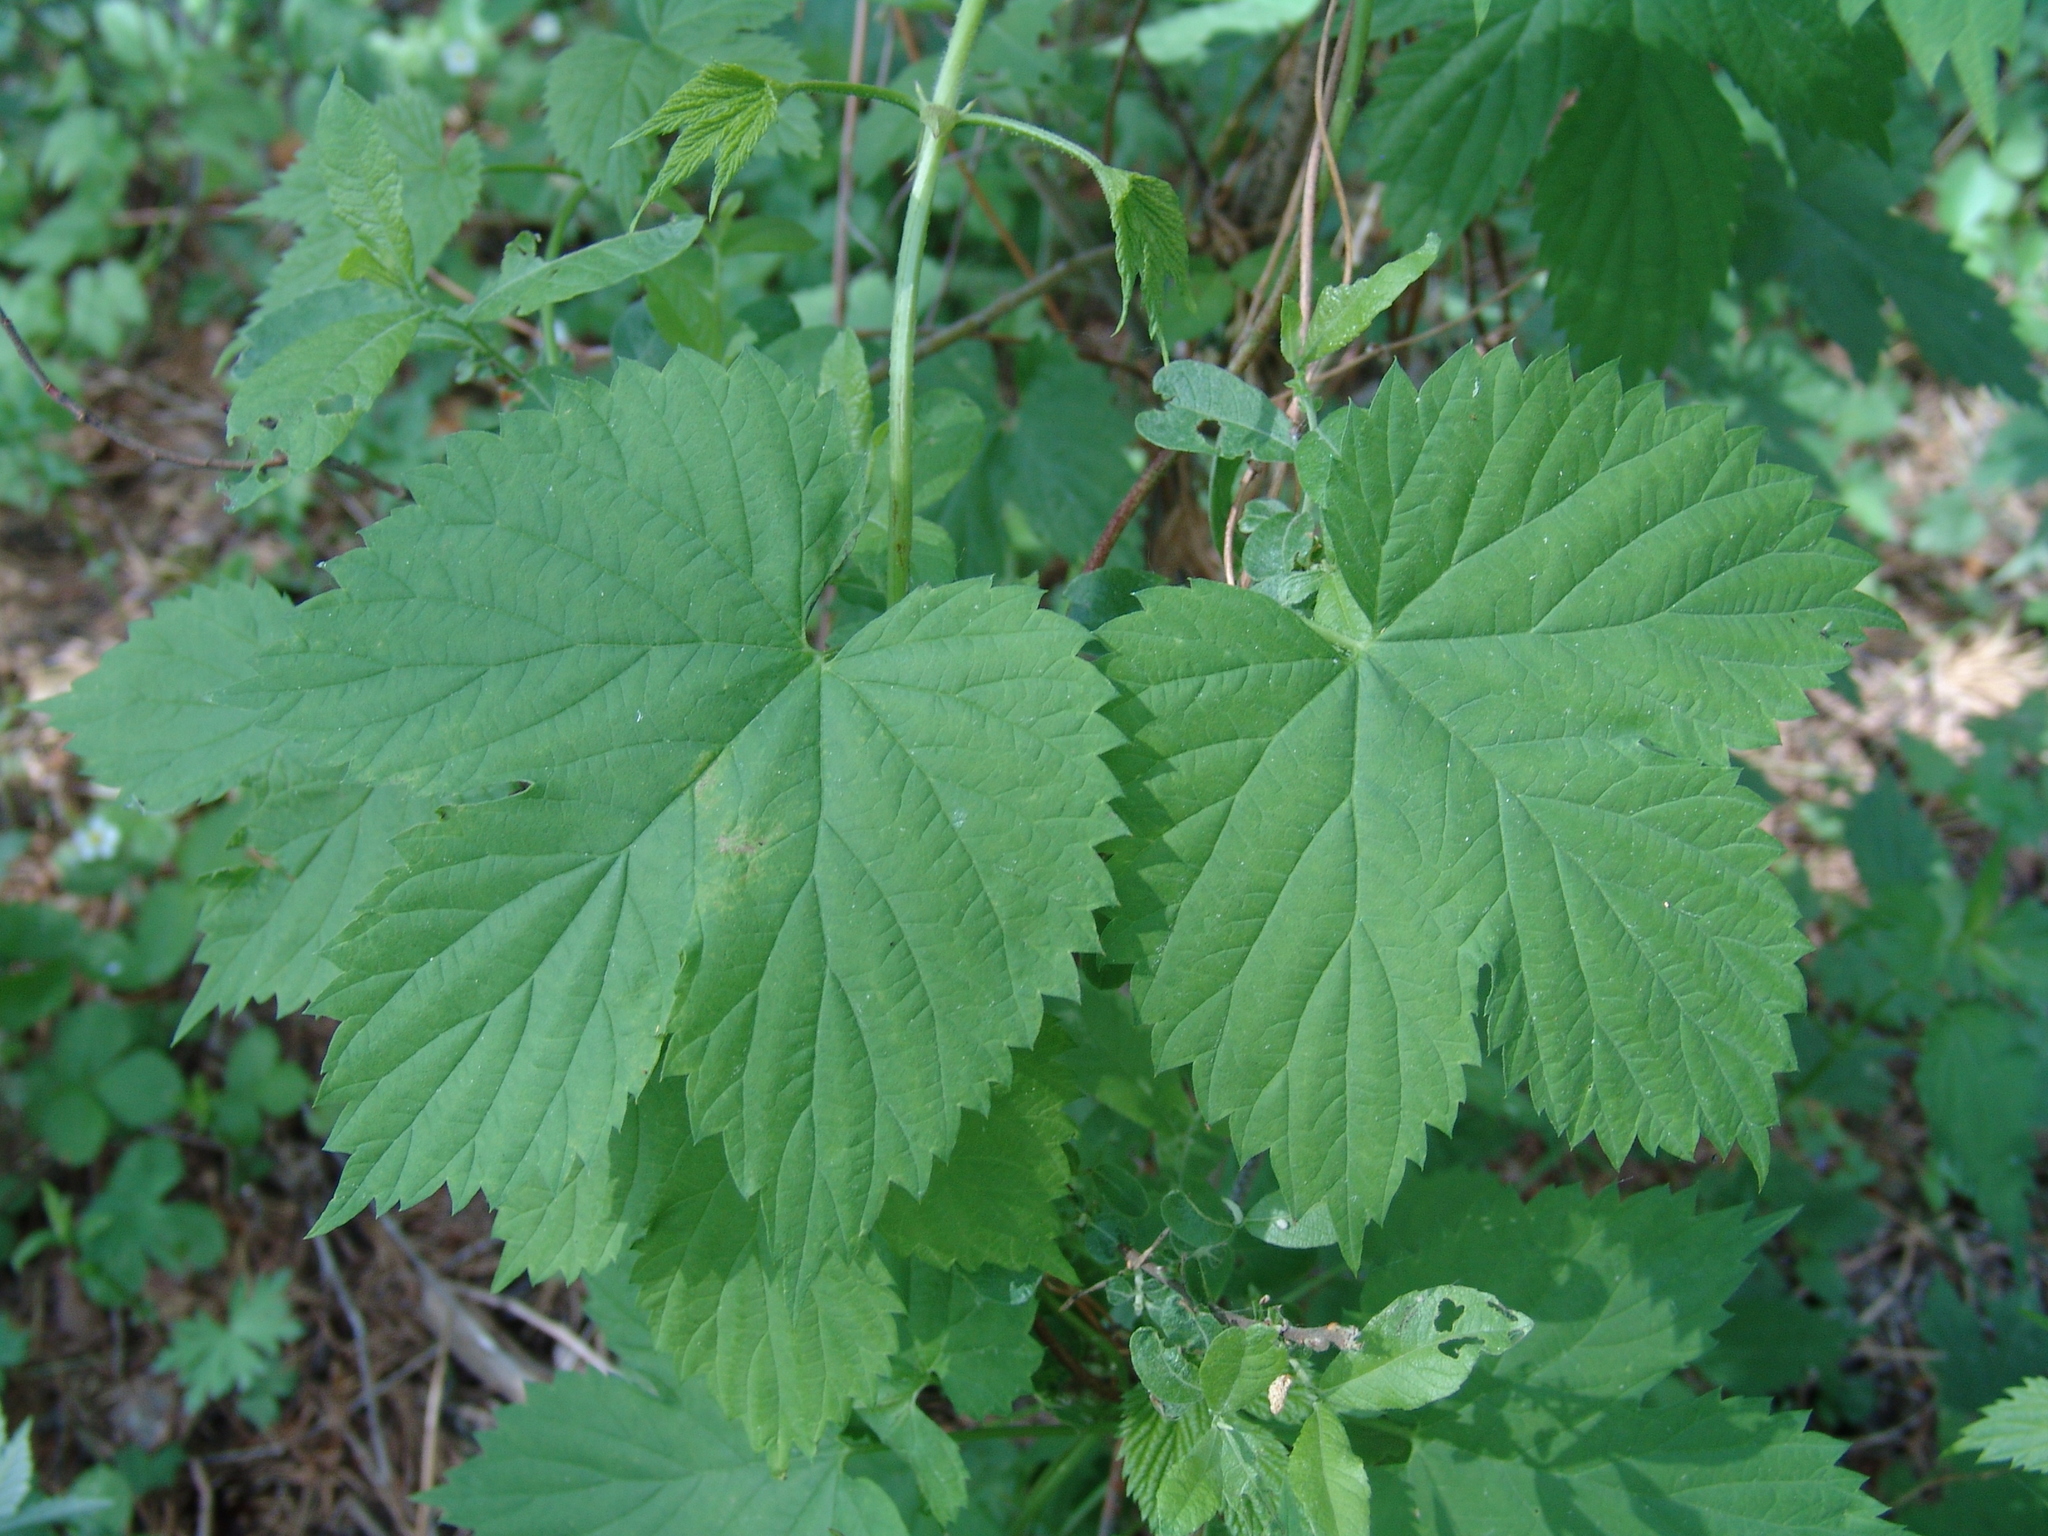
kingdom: Plantae
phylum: Tracheophyta
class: Magnoliopsida
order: Rosales
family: Cannabaceae
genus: Humulus
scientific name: Humulus lupulus
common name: Hop
